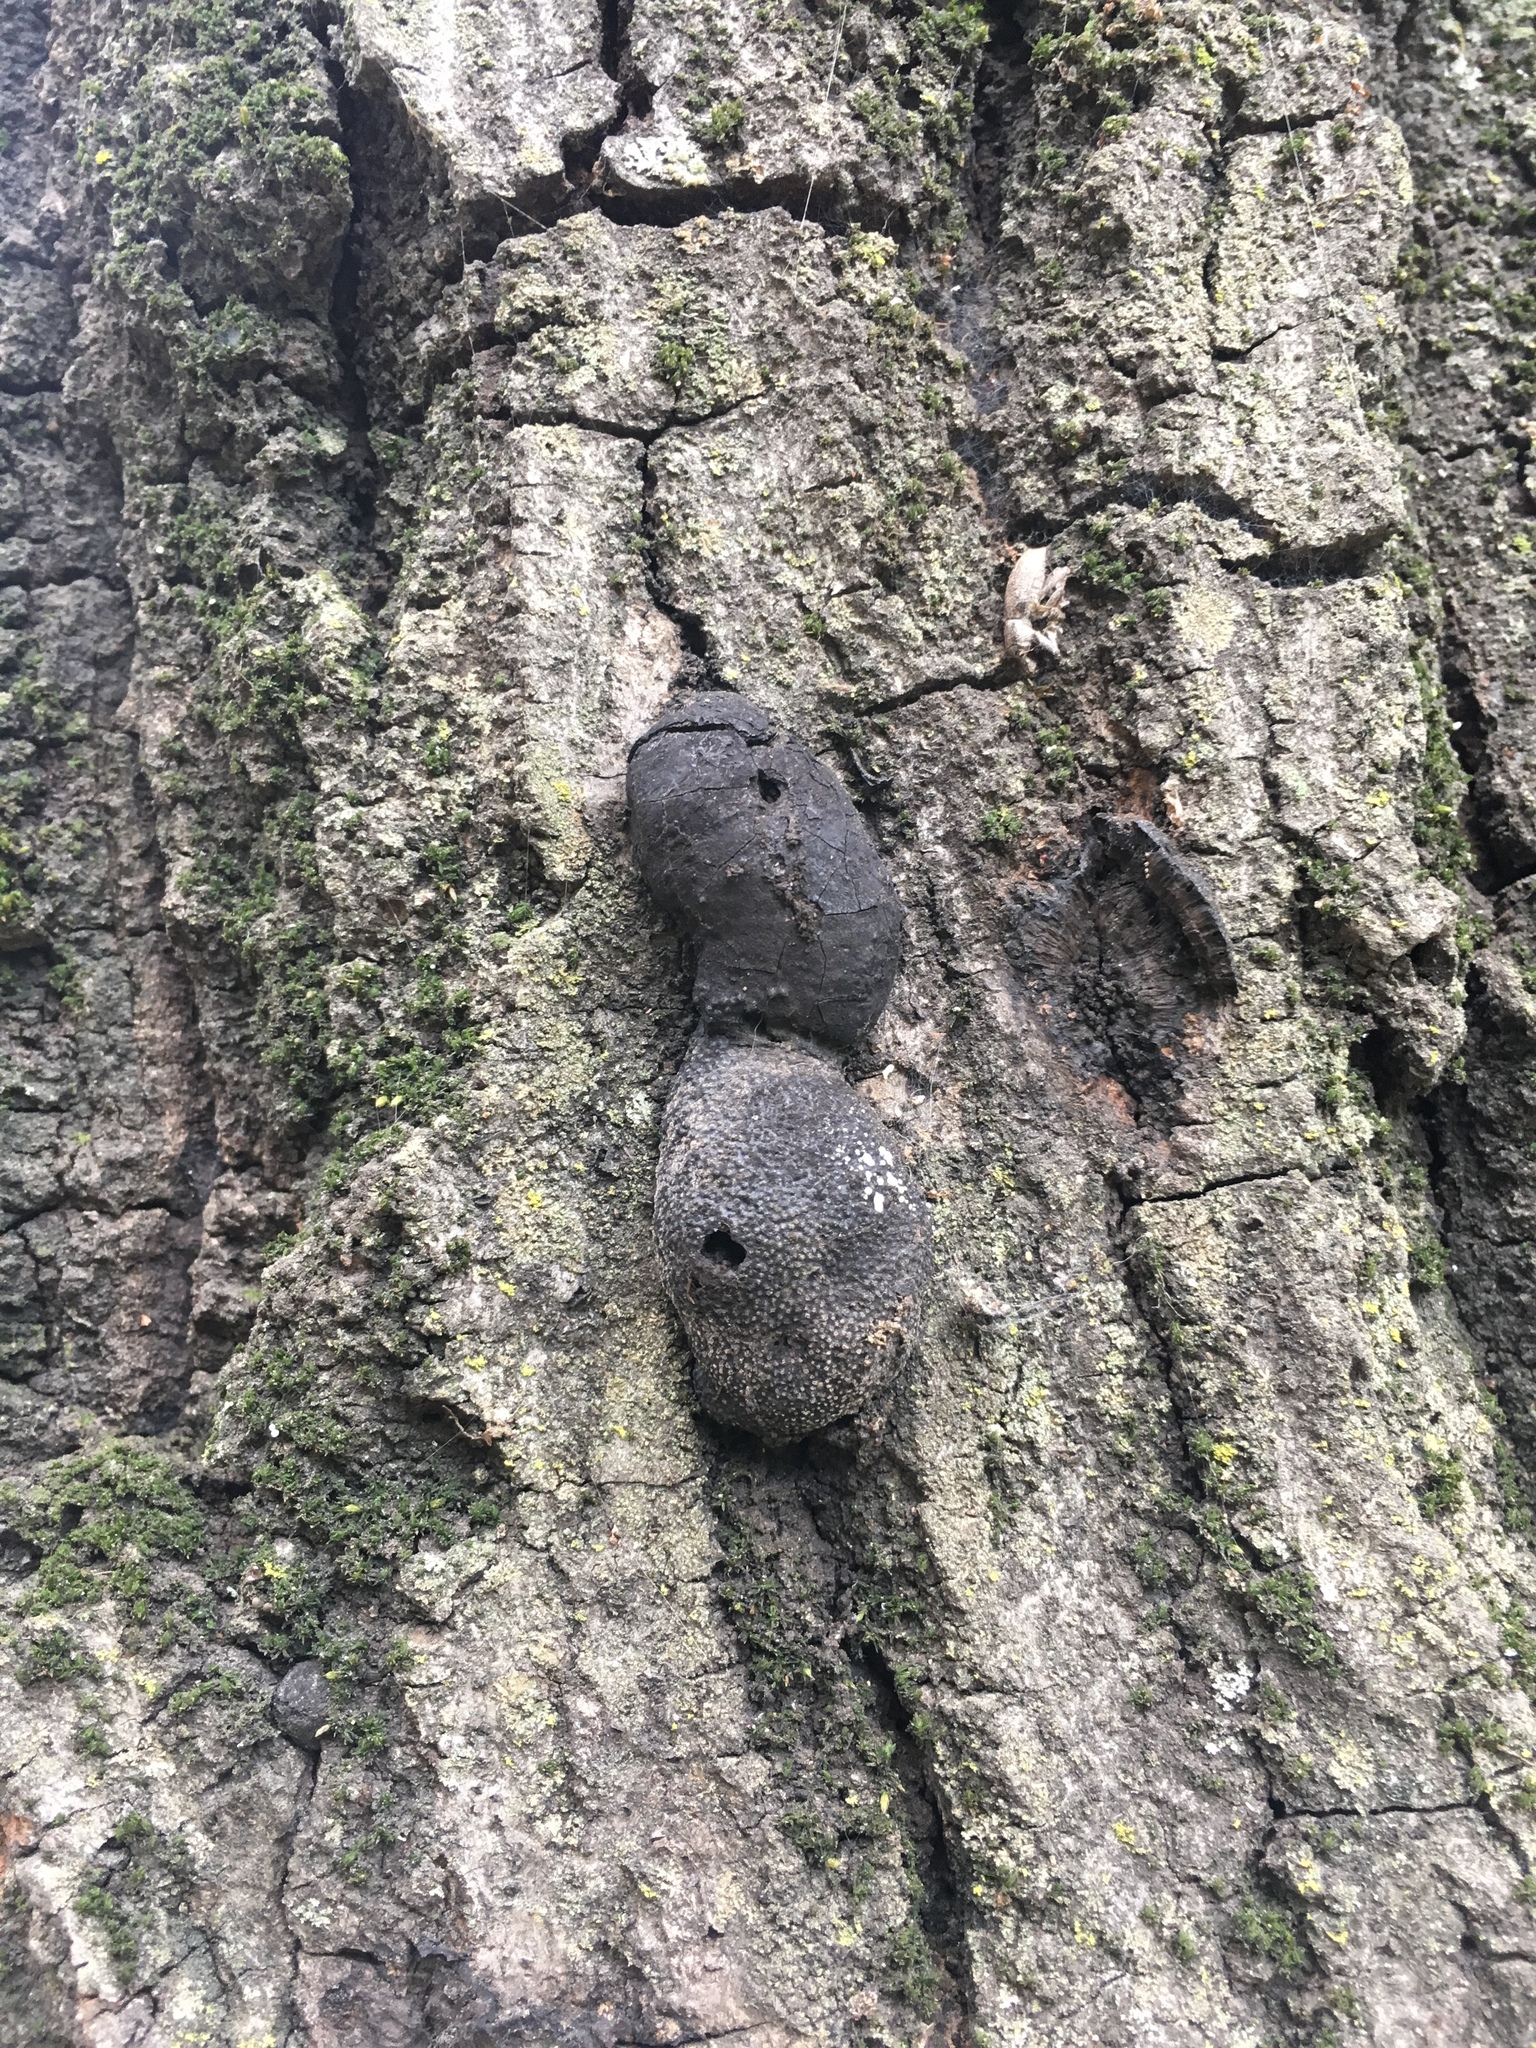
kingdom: Fungi
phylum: Ascomycota
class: Sordariomycetes
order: Xylariales
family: Hypoxylaceae
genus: Annulohypoxylon
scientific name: Annulohypoxylon thouarsianum
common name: Cramp balls
